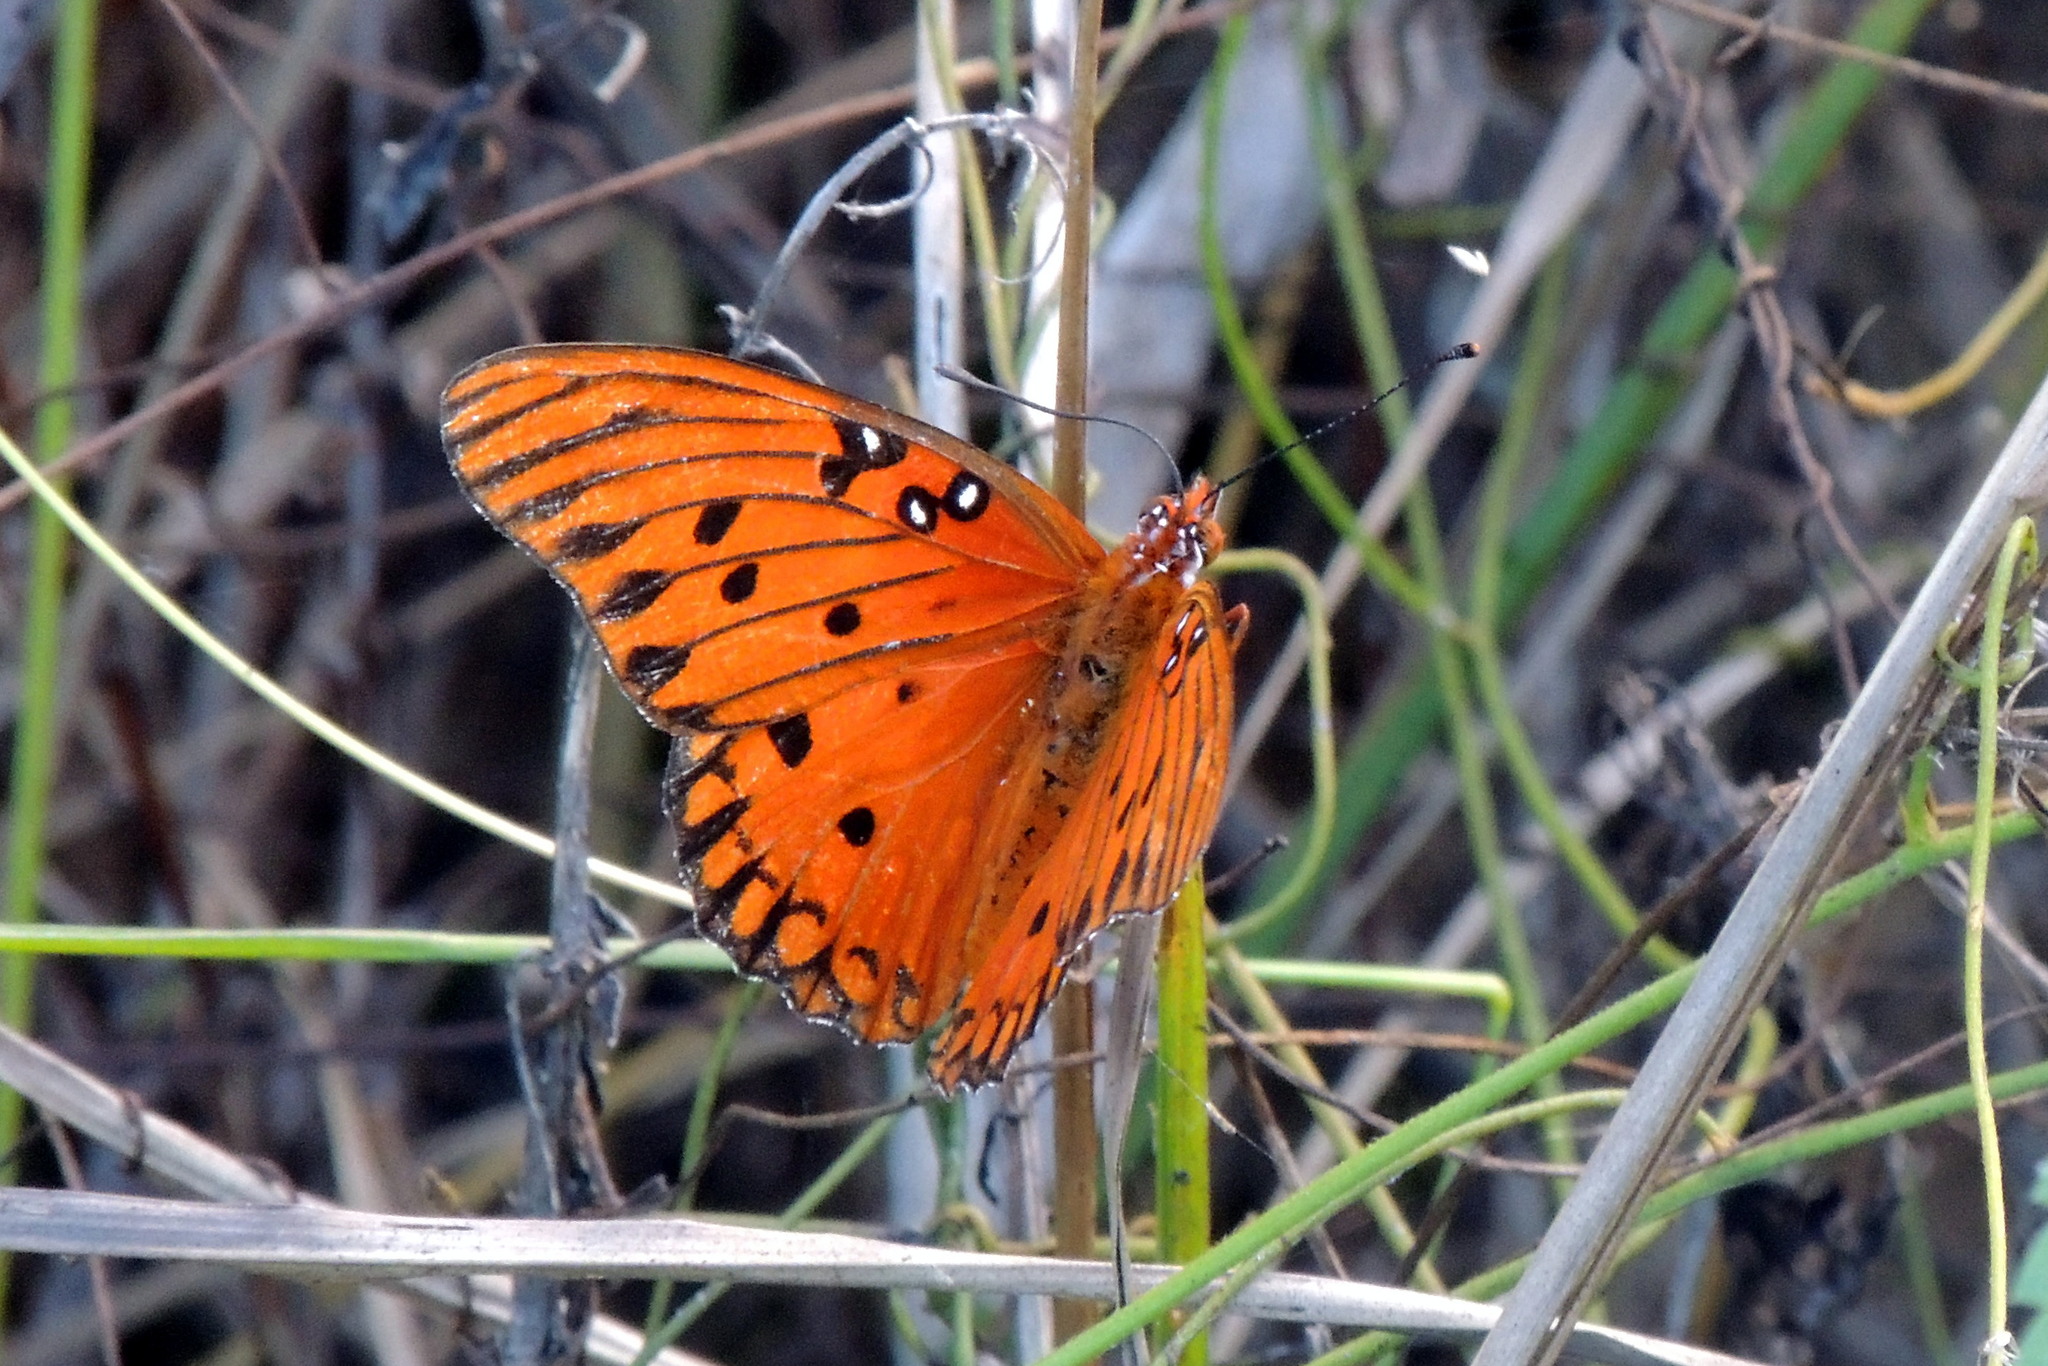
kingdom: Animalia
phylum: Arthropoda
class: Insecta
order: Lepidoptera
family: Nymphalidae
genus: Dione
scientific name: Dione vanillae
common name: Gulf fritillary
